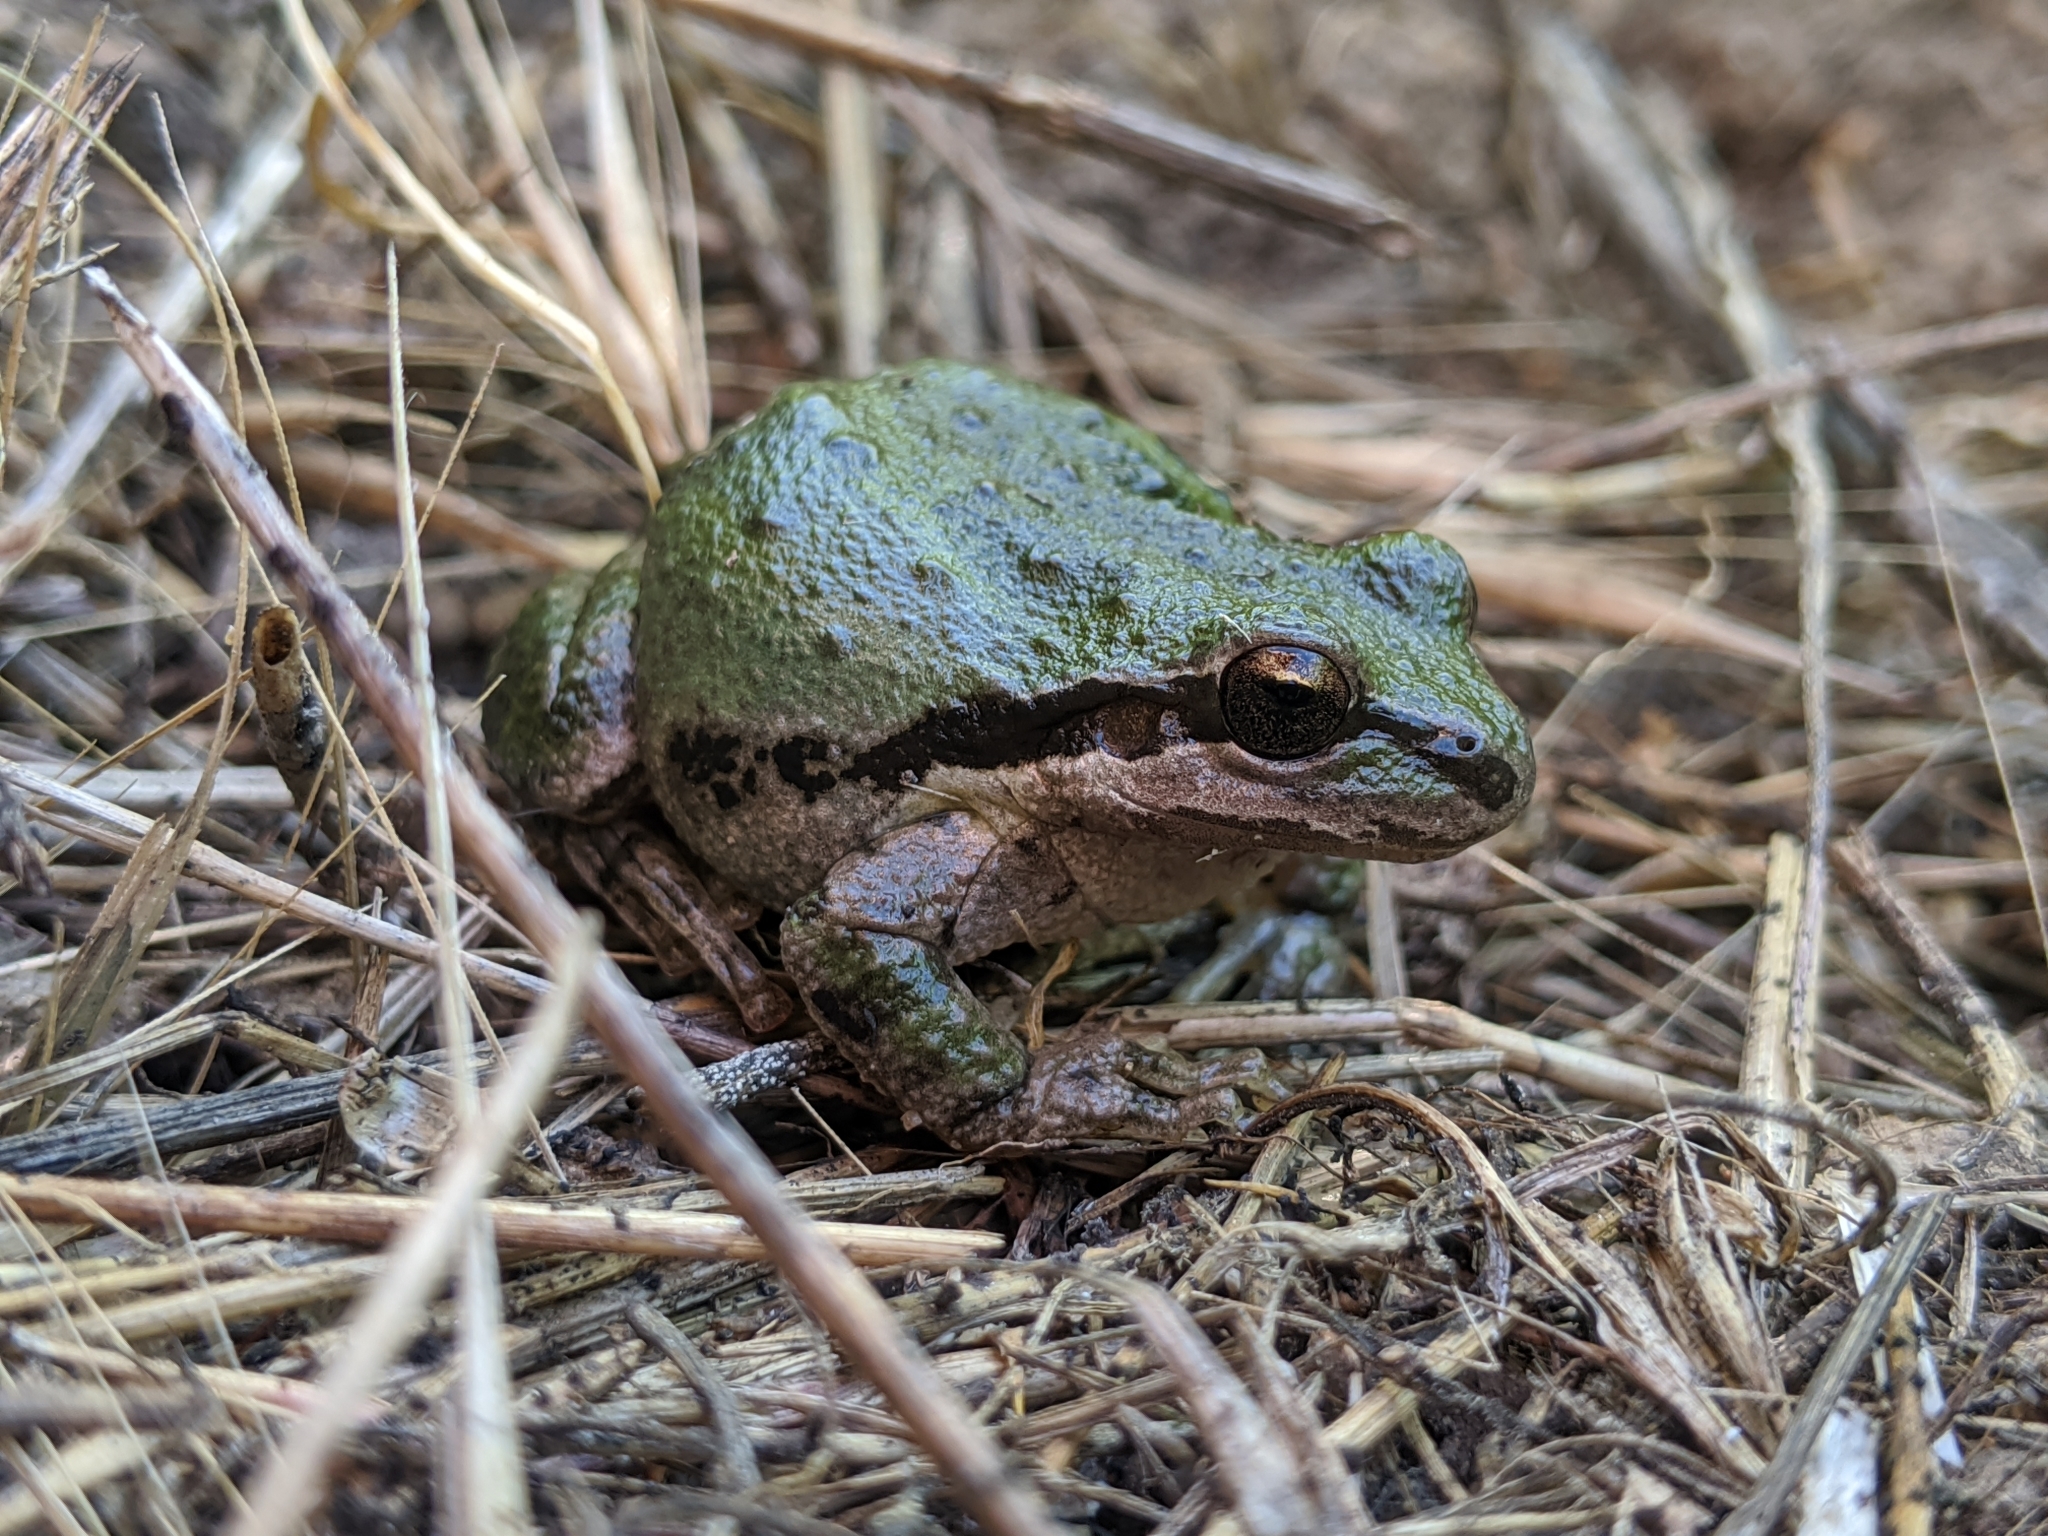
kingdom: Animalia
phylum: Chordata
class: Amphibia
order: Anura
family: Hylidae
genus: Pseudacris
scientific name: Pseudacris regilla
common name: Pacific chorus frog
